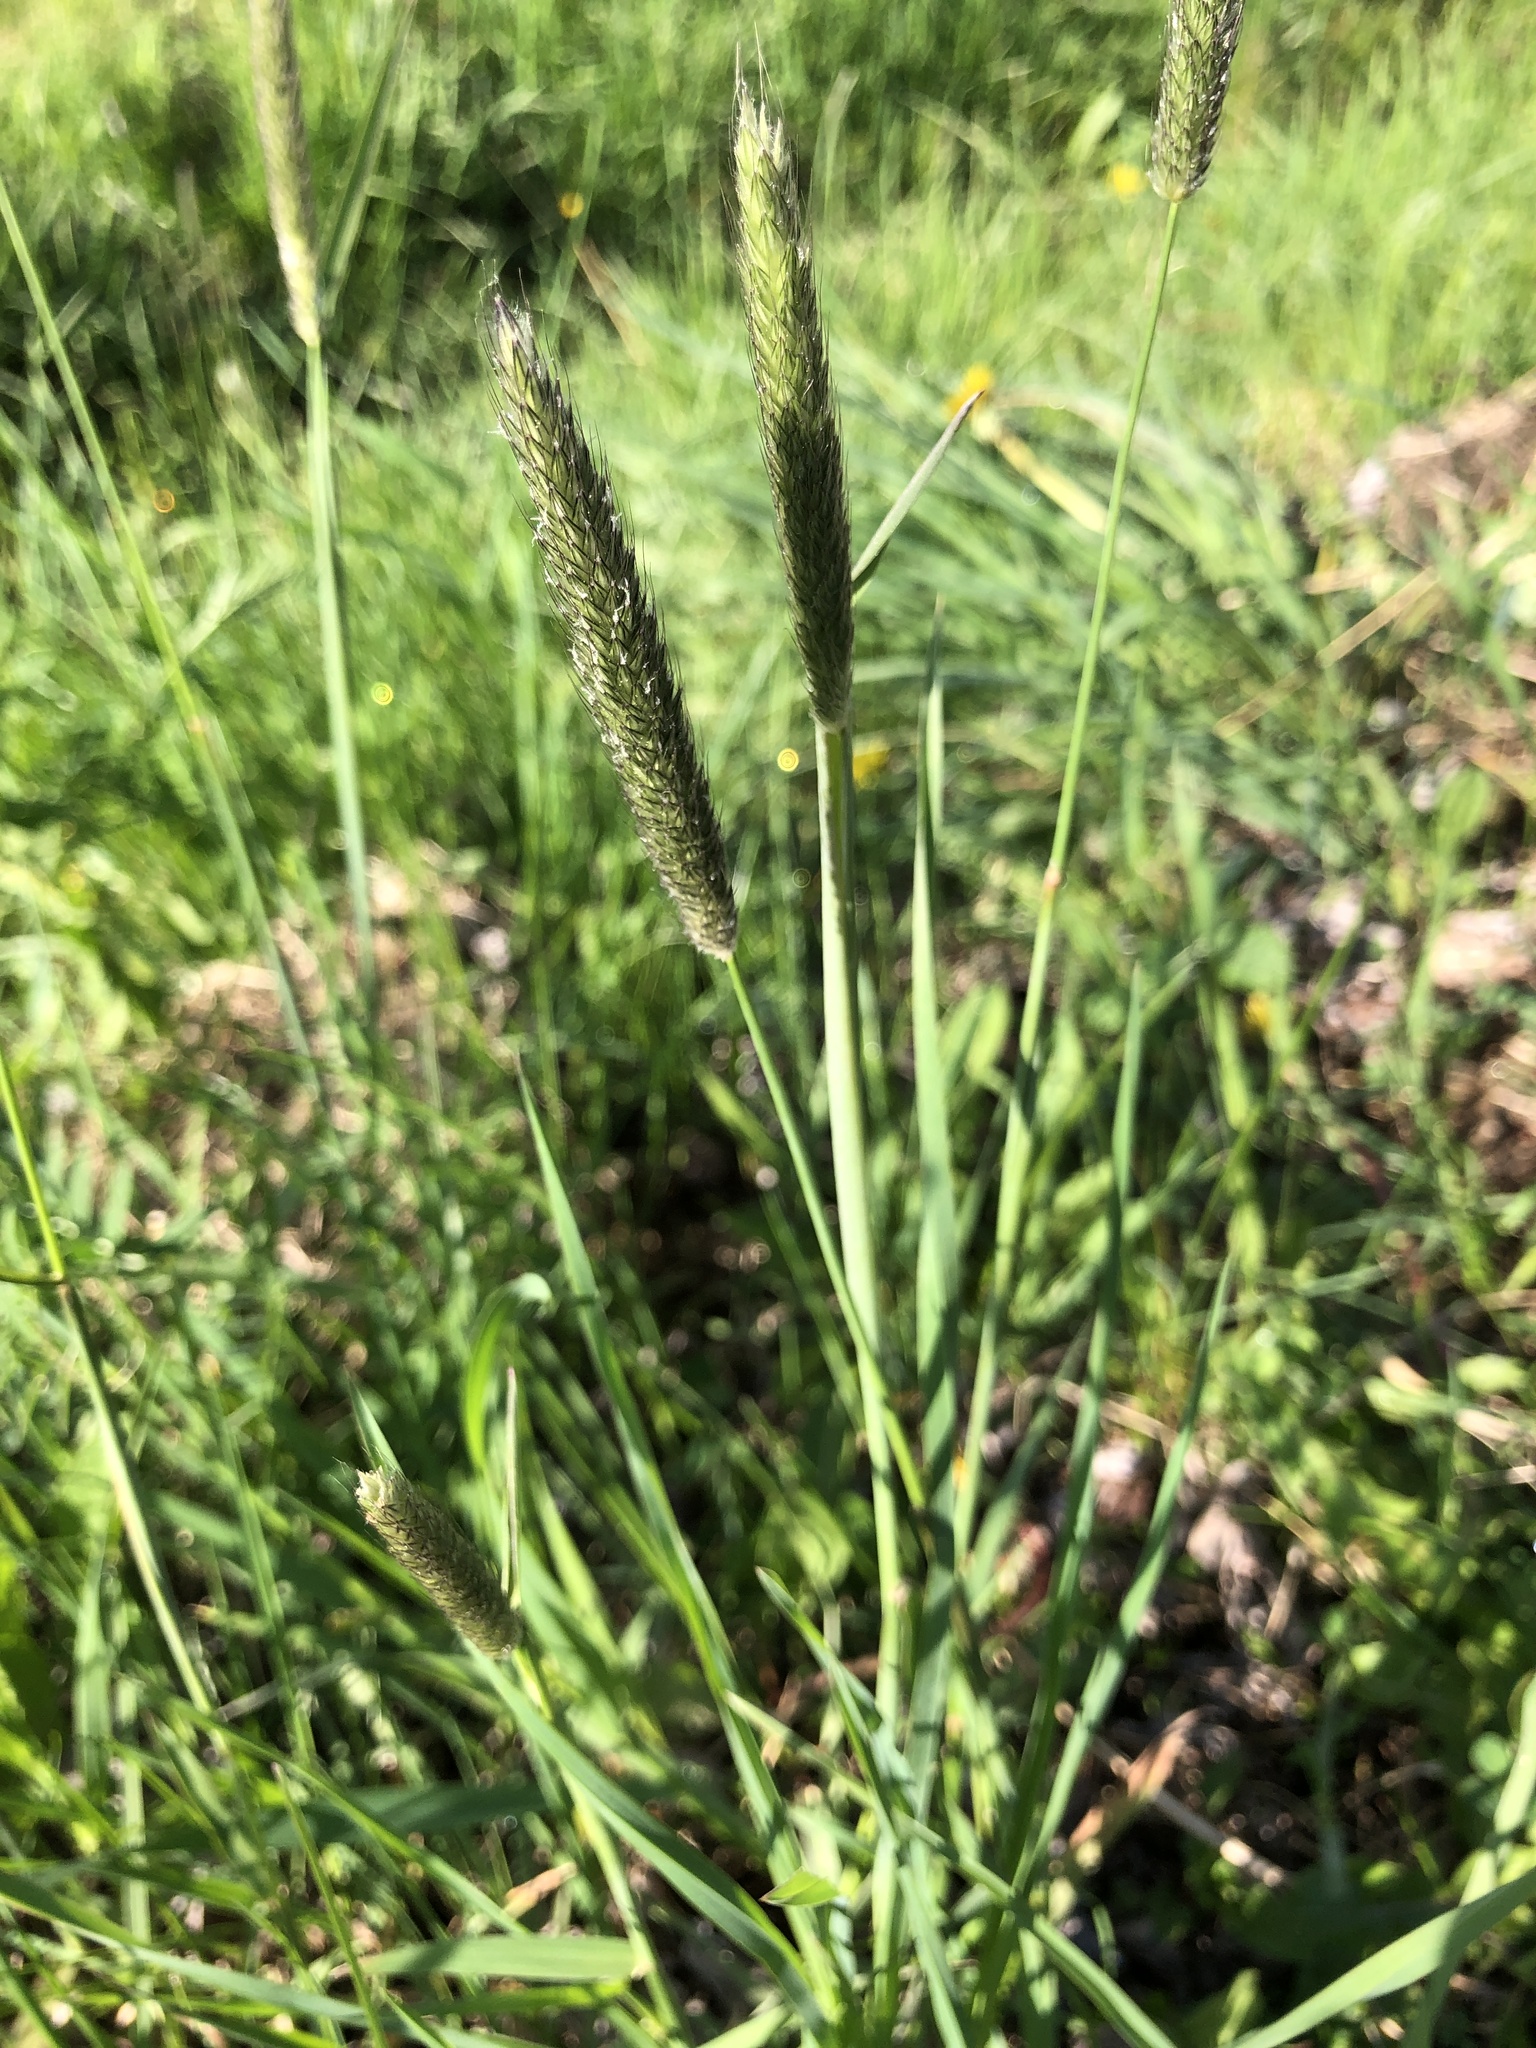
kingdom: Plantae
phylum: Tracheophyta
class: Liliopsida
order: Poales
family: Poaceae
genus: Alopecurus
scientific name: Alopecurus pratensis
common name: Meadow foxtail
